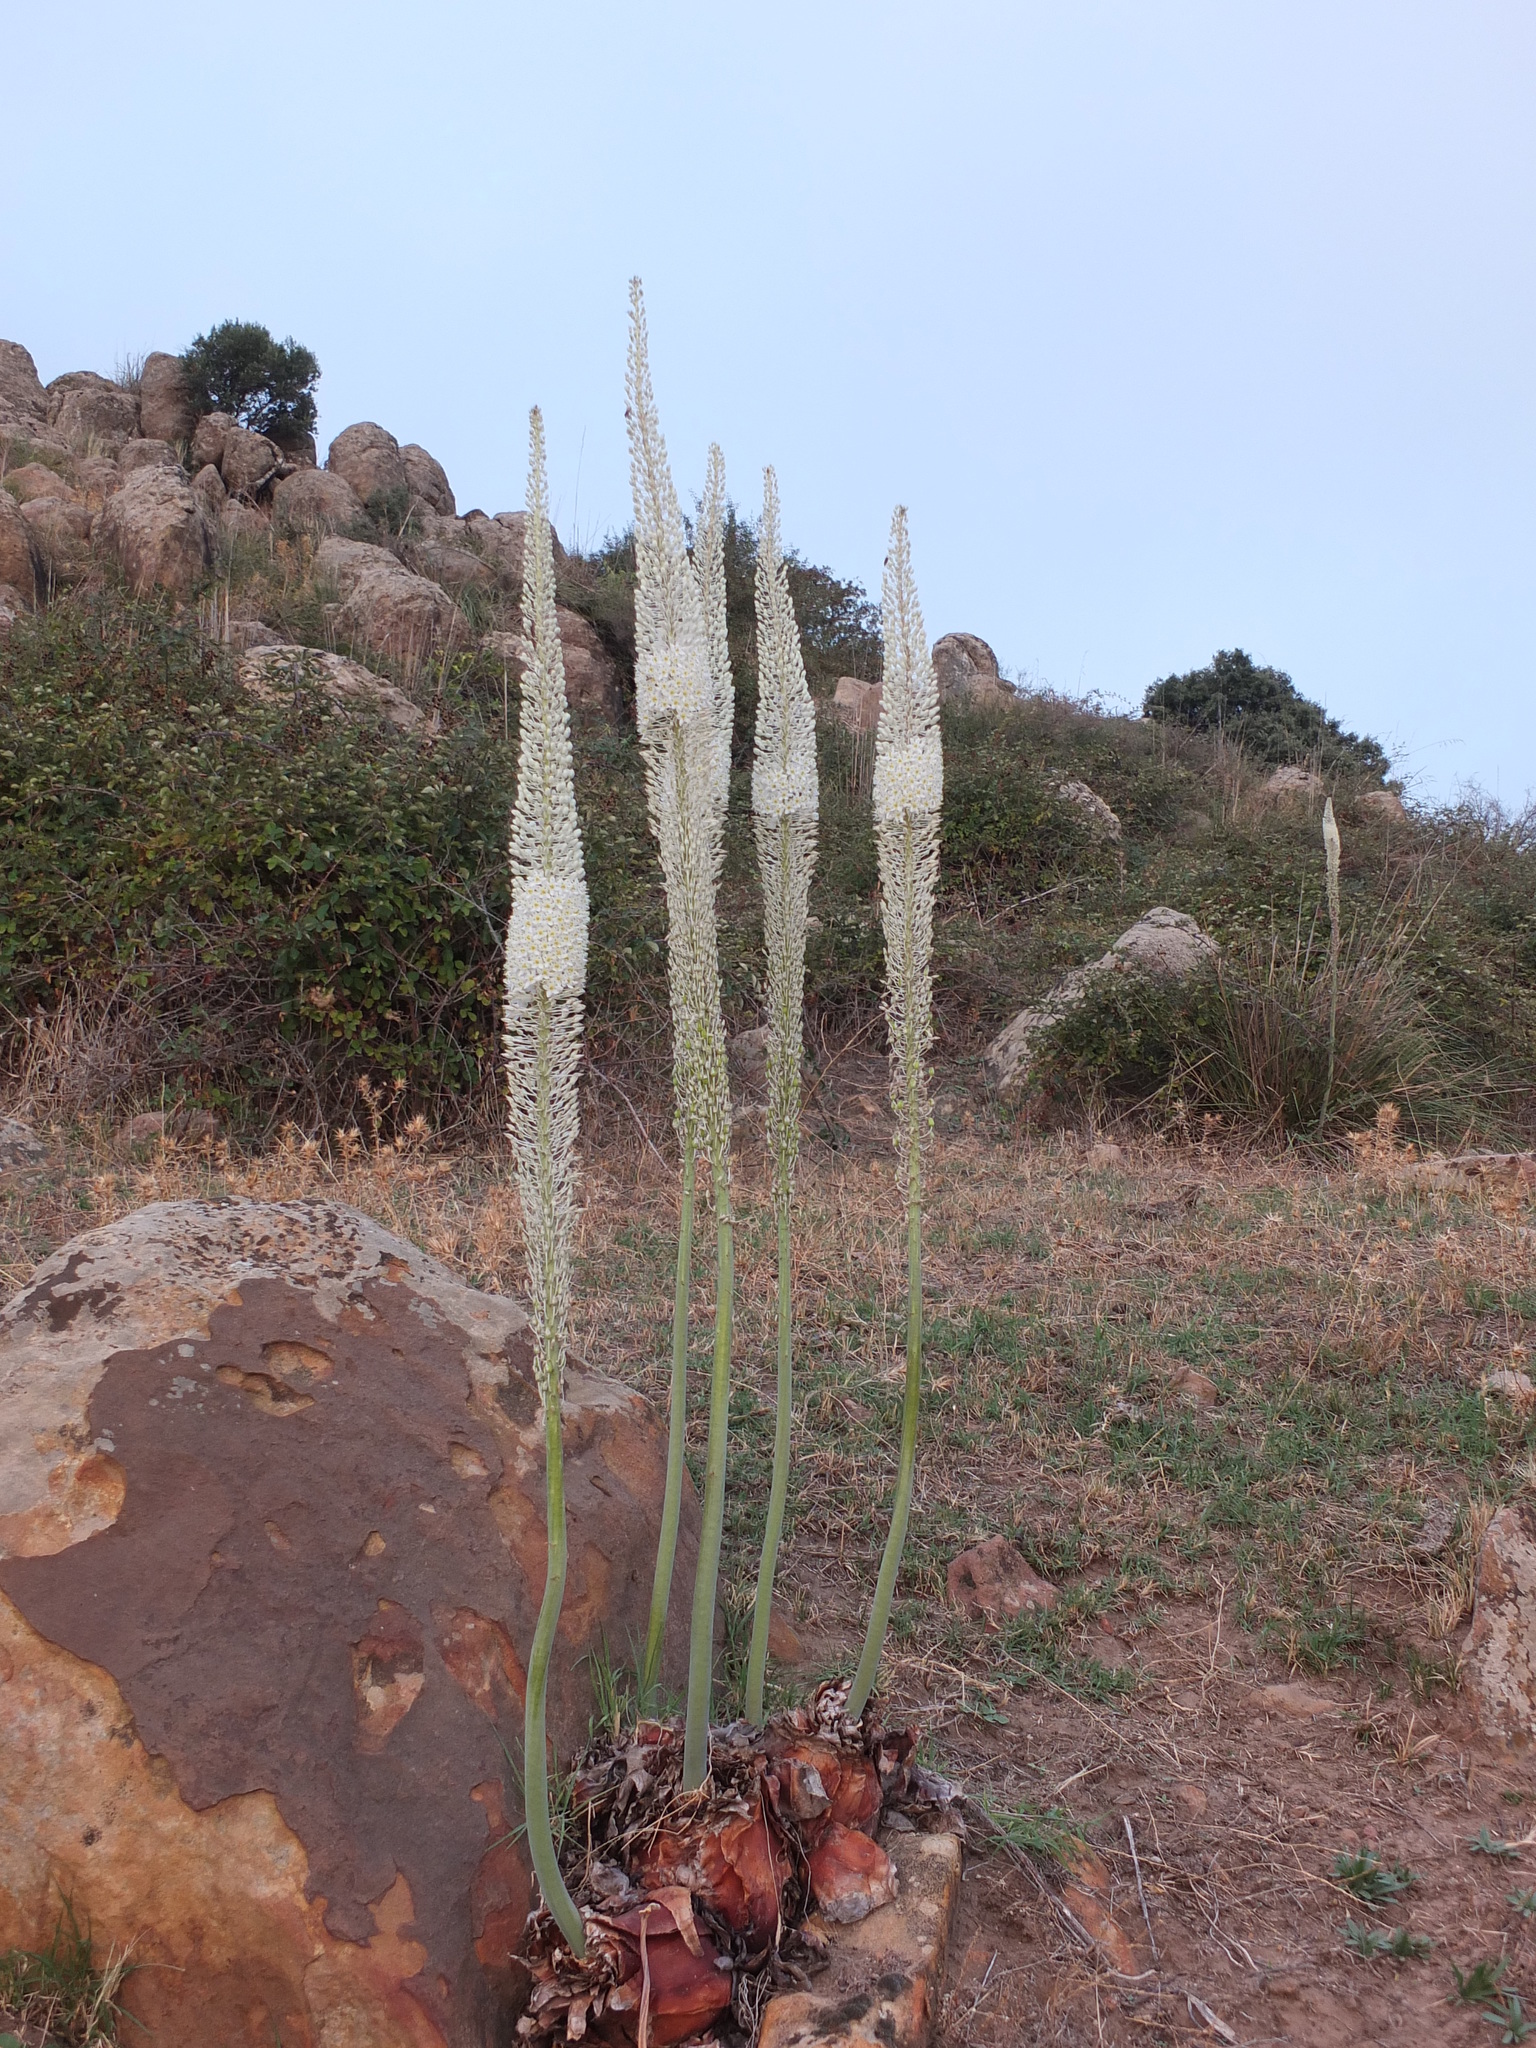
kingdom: Plantae
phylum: Tracheophyta
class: Liliopsida
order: Asparagales
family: Asparagaceae
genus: Drimia
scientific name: Drimia numidica
